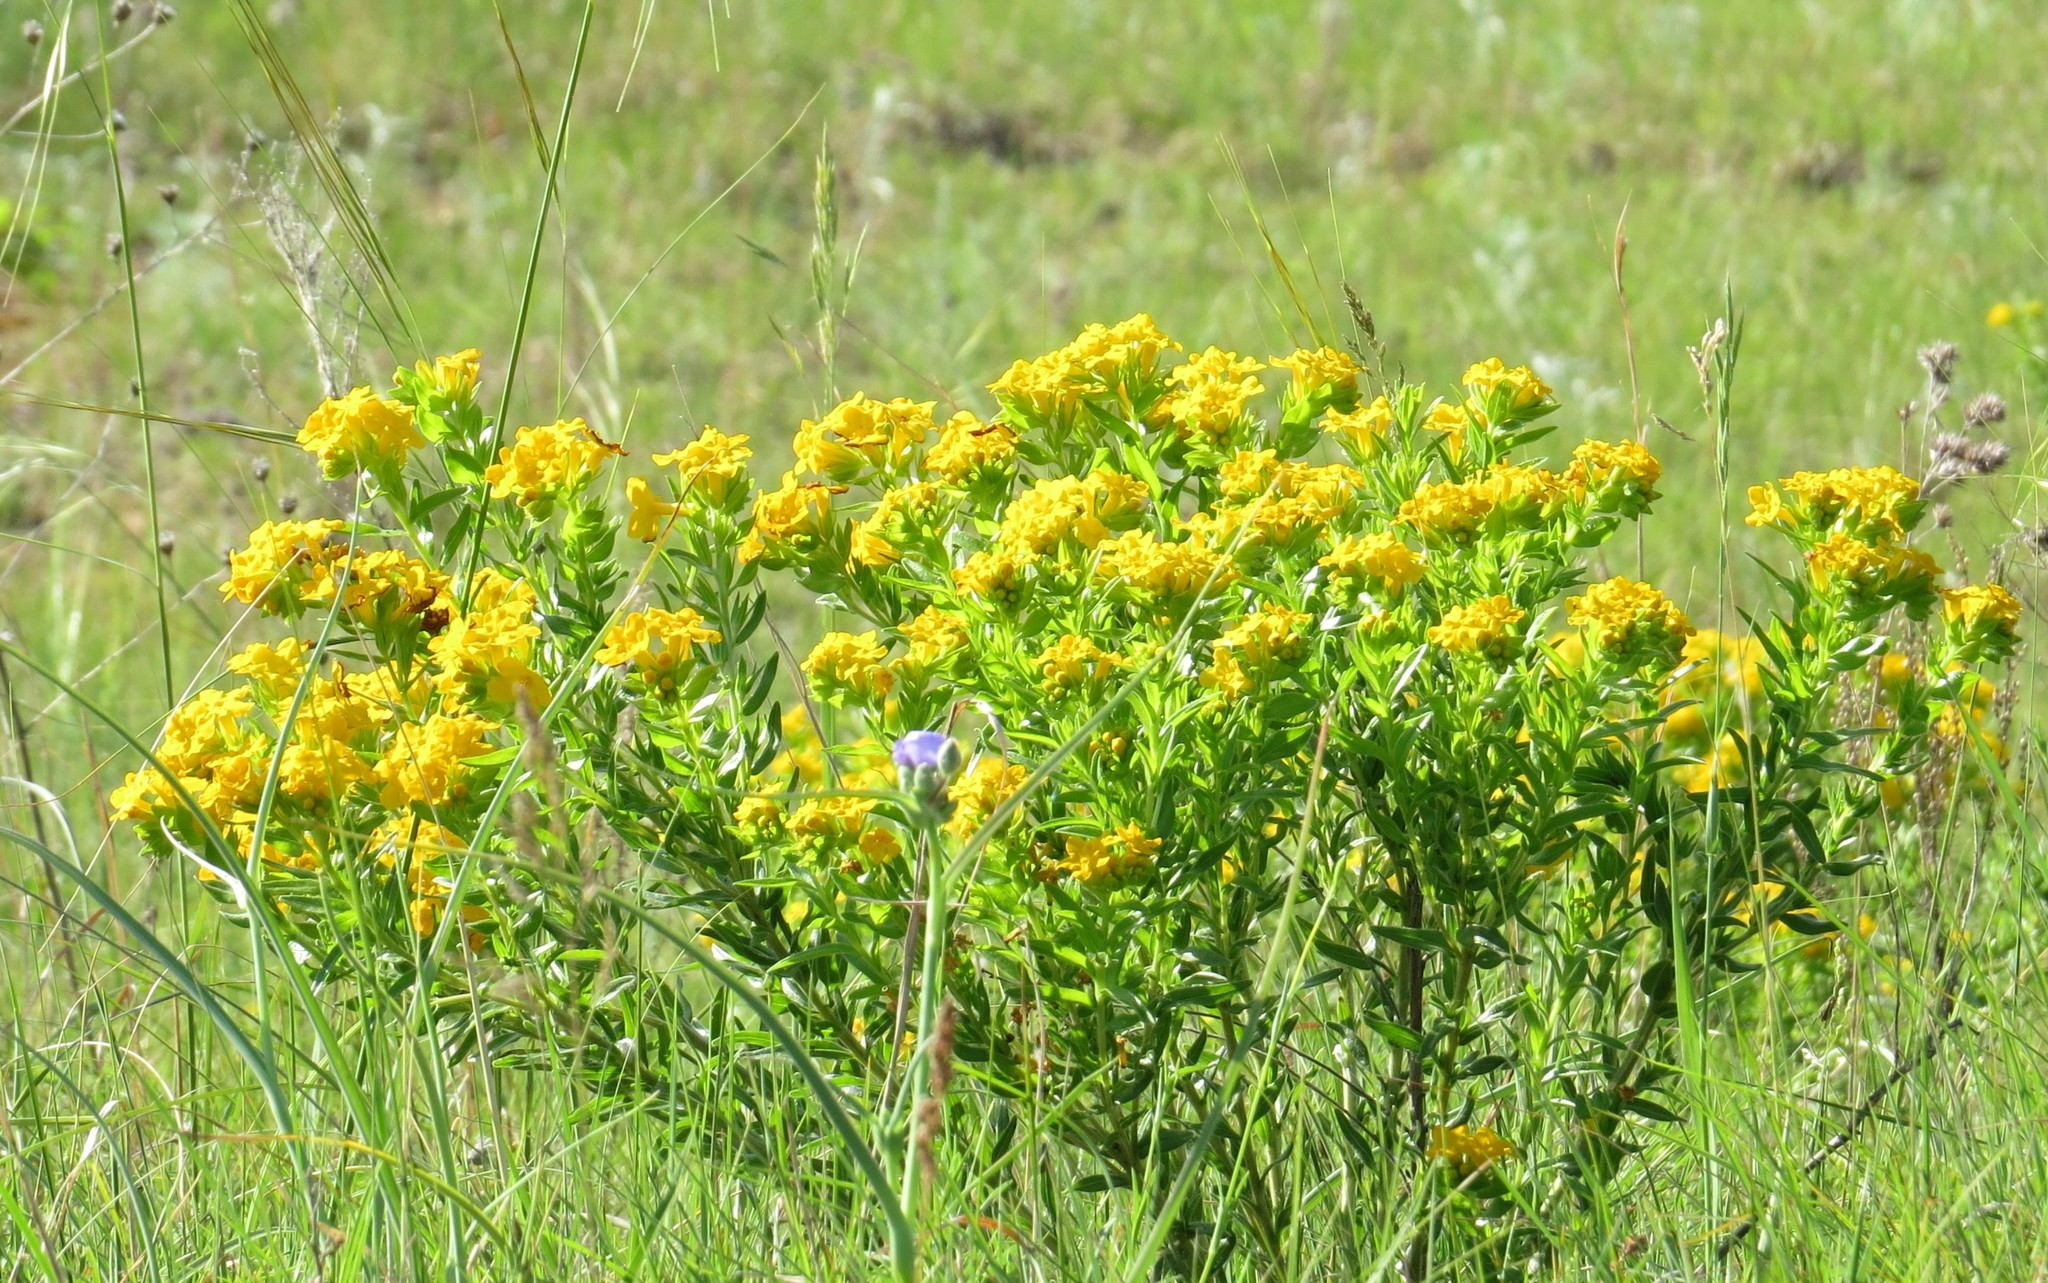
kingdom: Plantae
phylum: Tracheophyta
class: Magnoliopsida
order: Boraginales
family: Boraginaceae
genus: Lithospermum
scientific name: Lithospermum caroliniense
